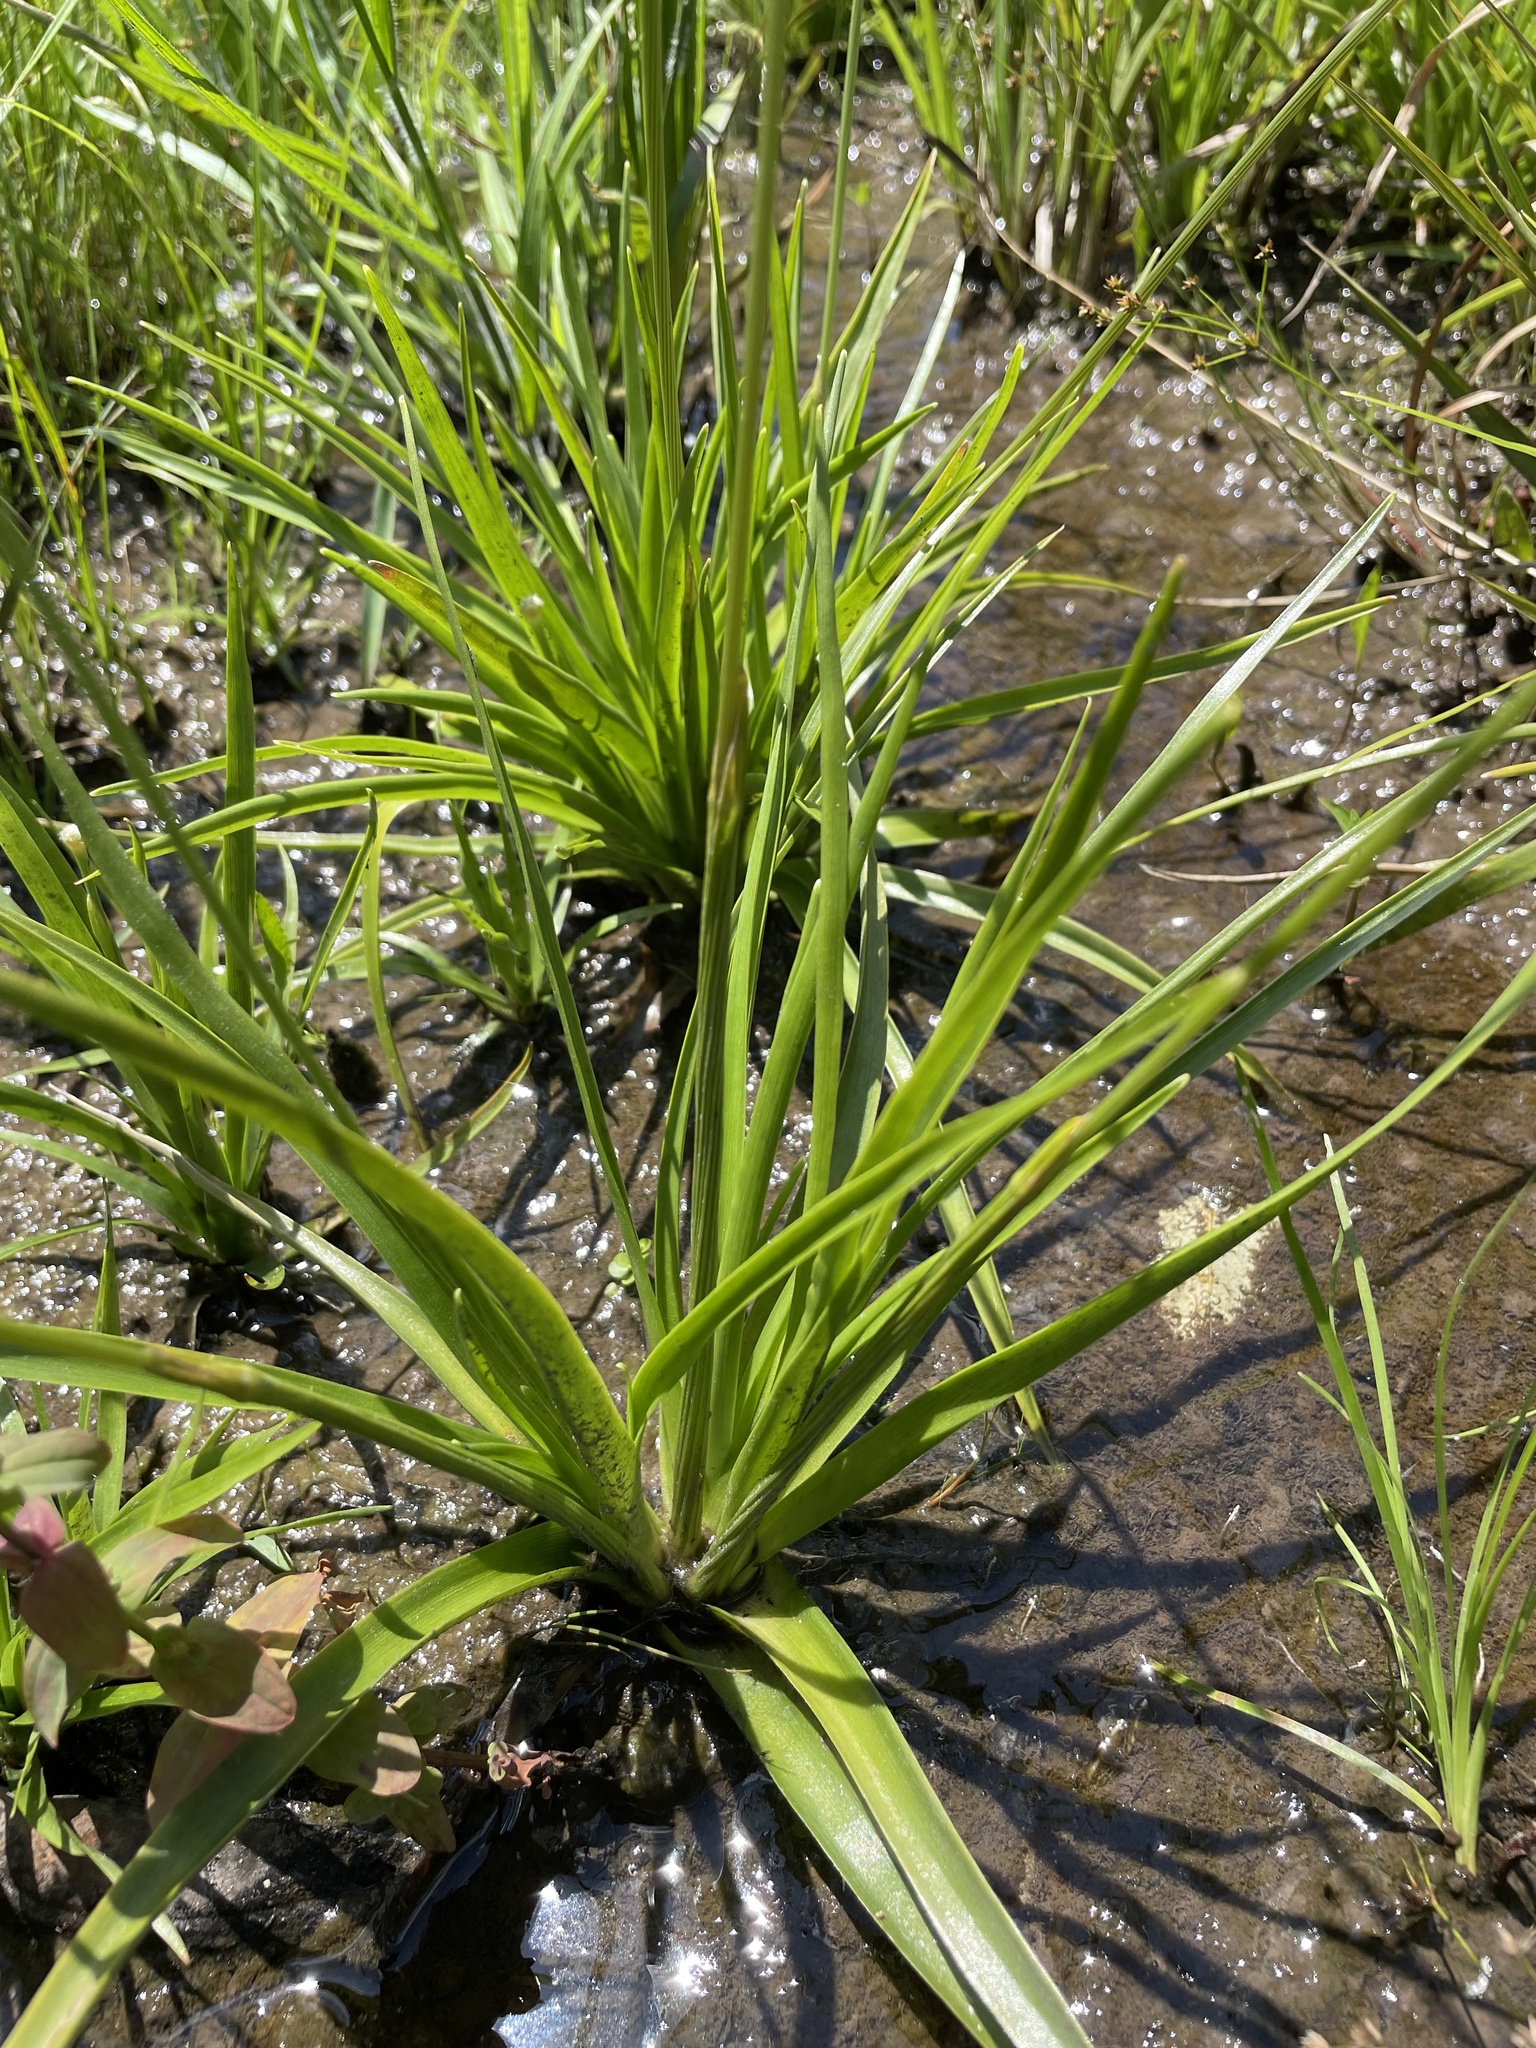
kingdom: Plantae
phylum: Tracheophyta
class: Liliopsida
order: Poales
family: Eriocaulaceae
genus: Eriocaulon
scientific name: Eriocaulon decangulare
